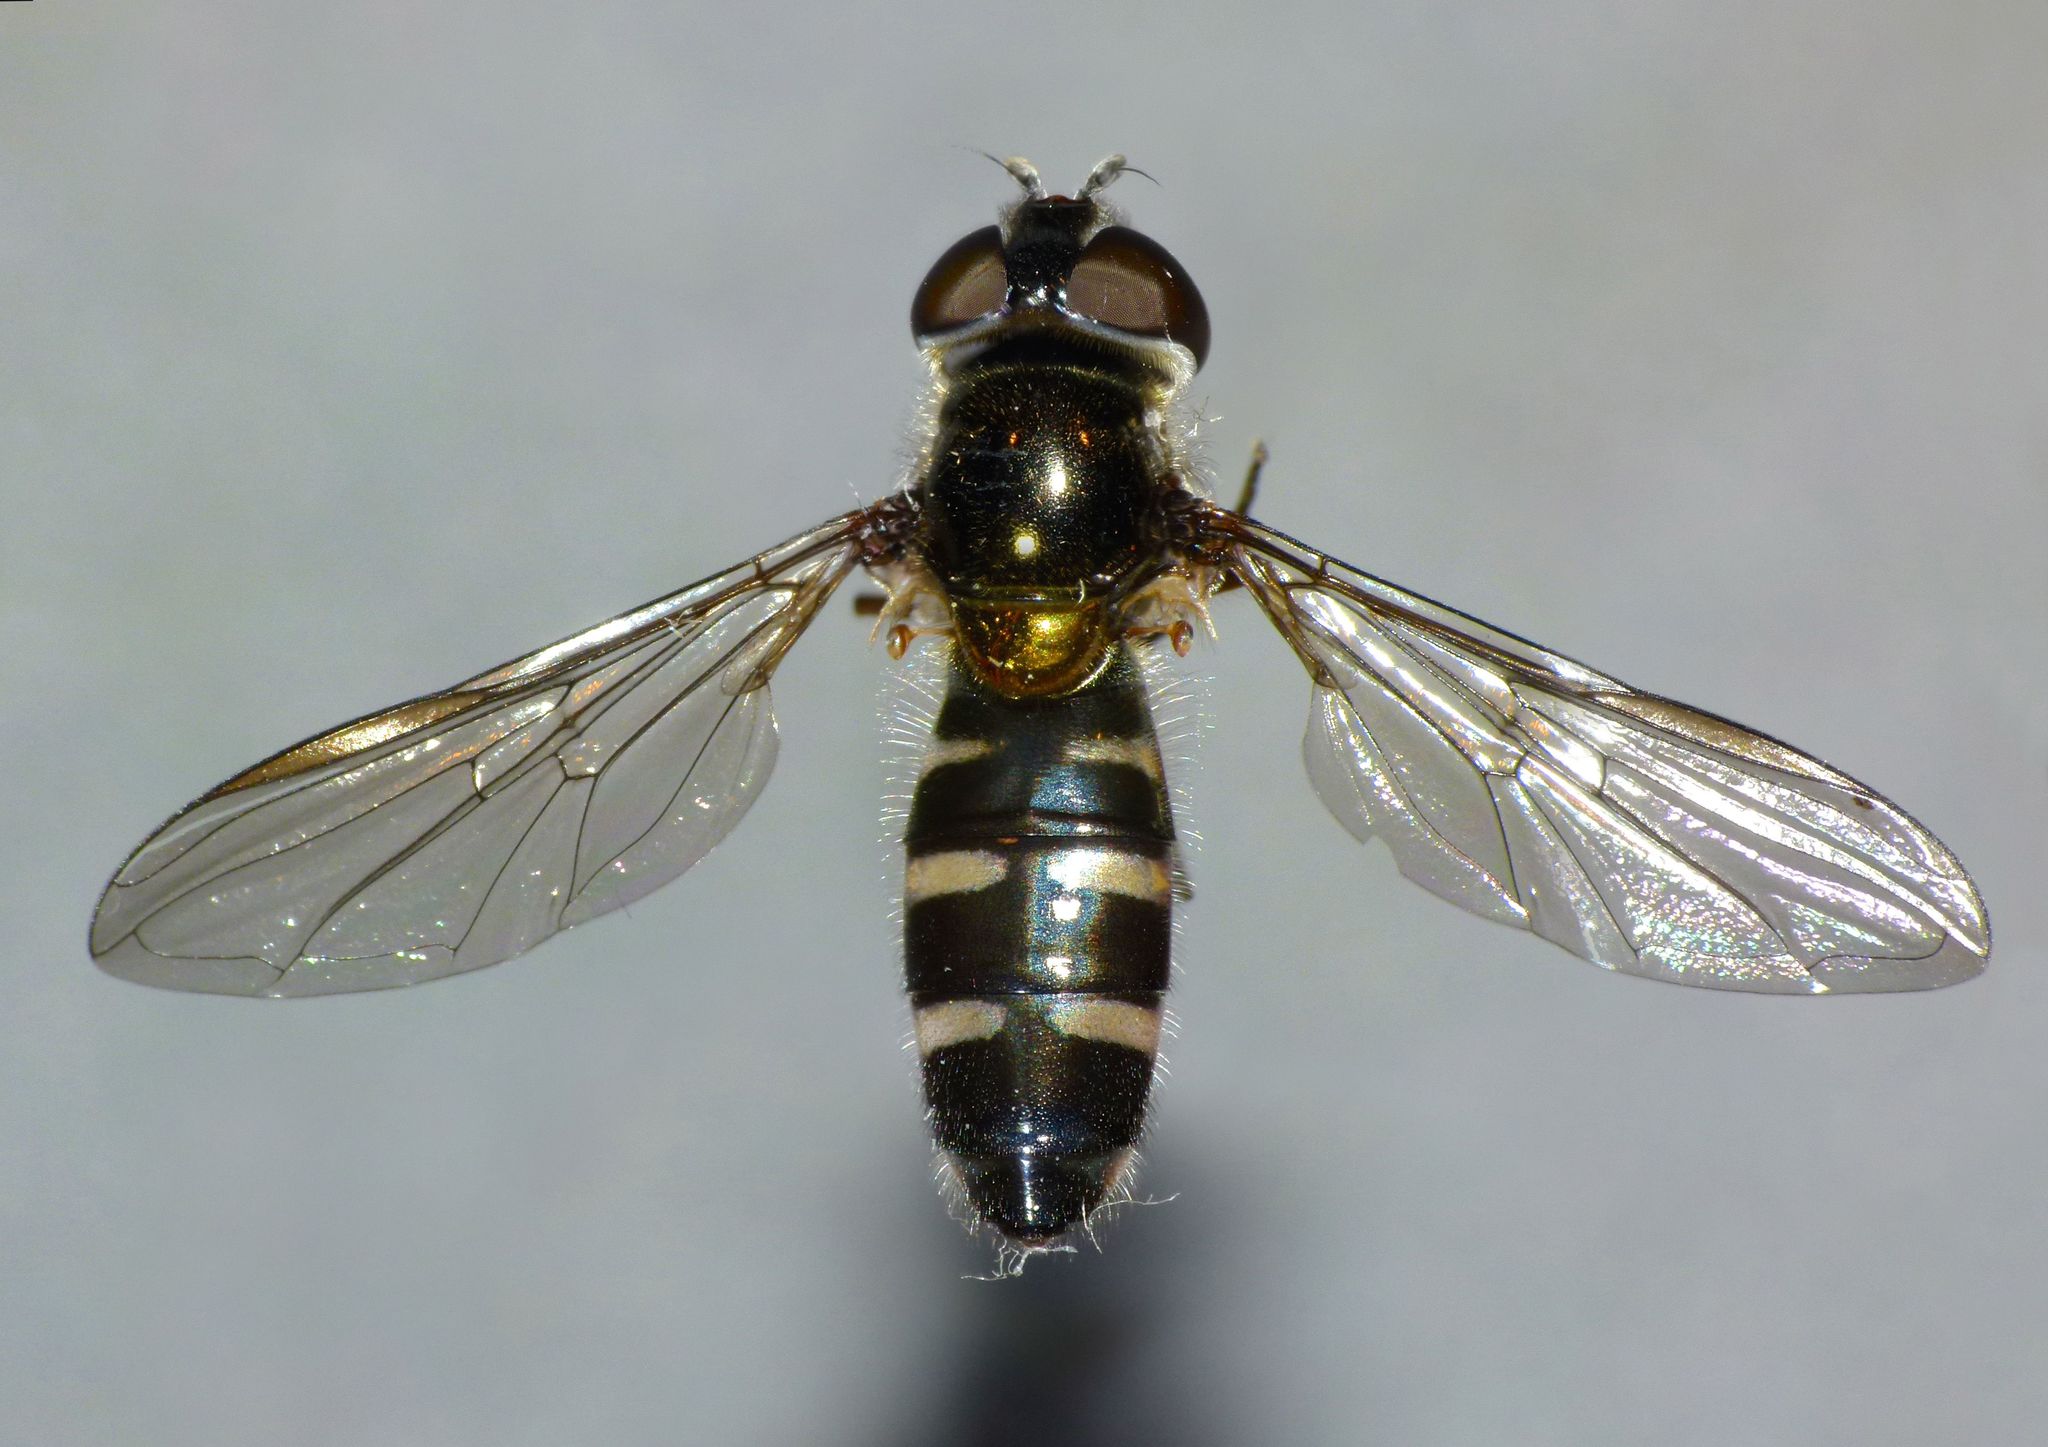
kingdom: Animalia
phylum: Arthropoda
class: Insecta
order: Diptera
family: Syrphidae
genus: Melangyna
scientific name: Melangyna novaezelandiae
